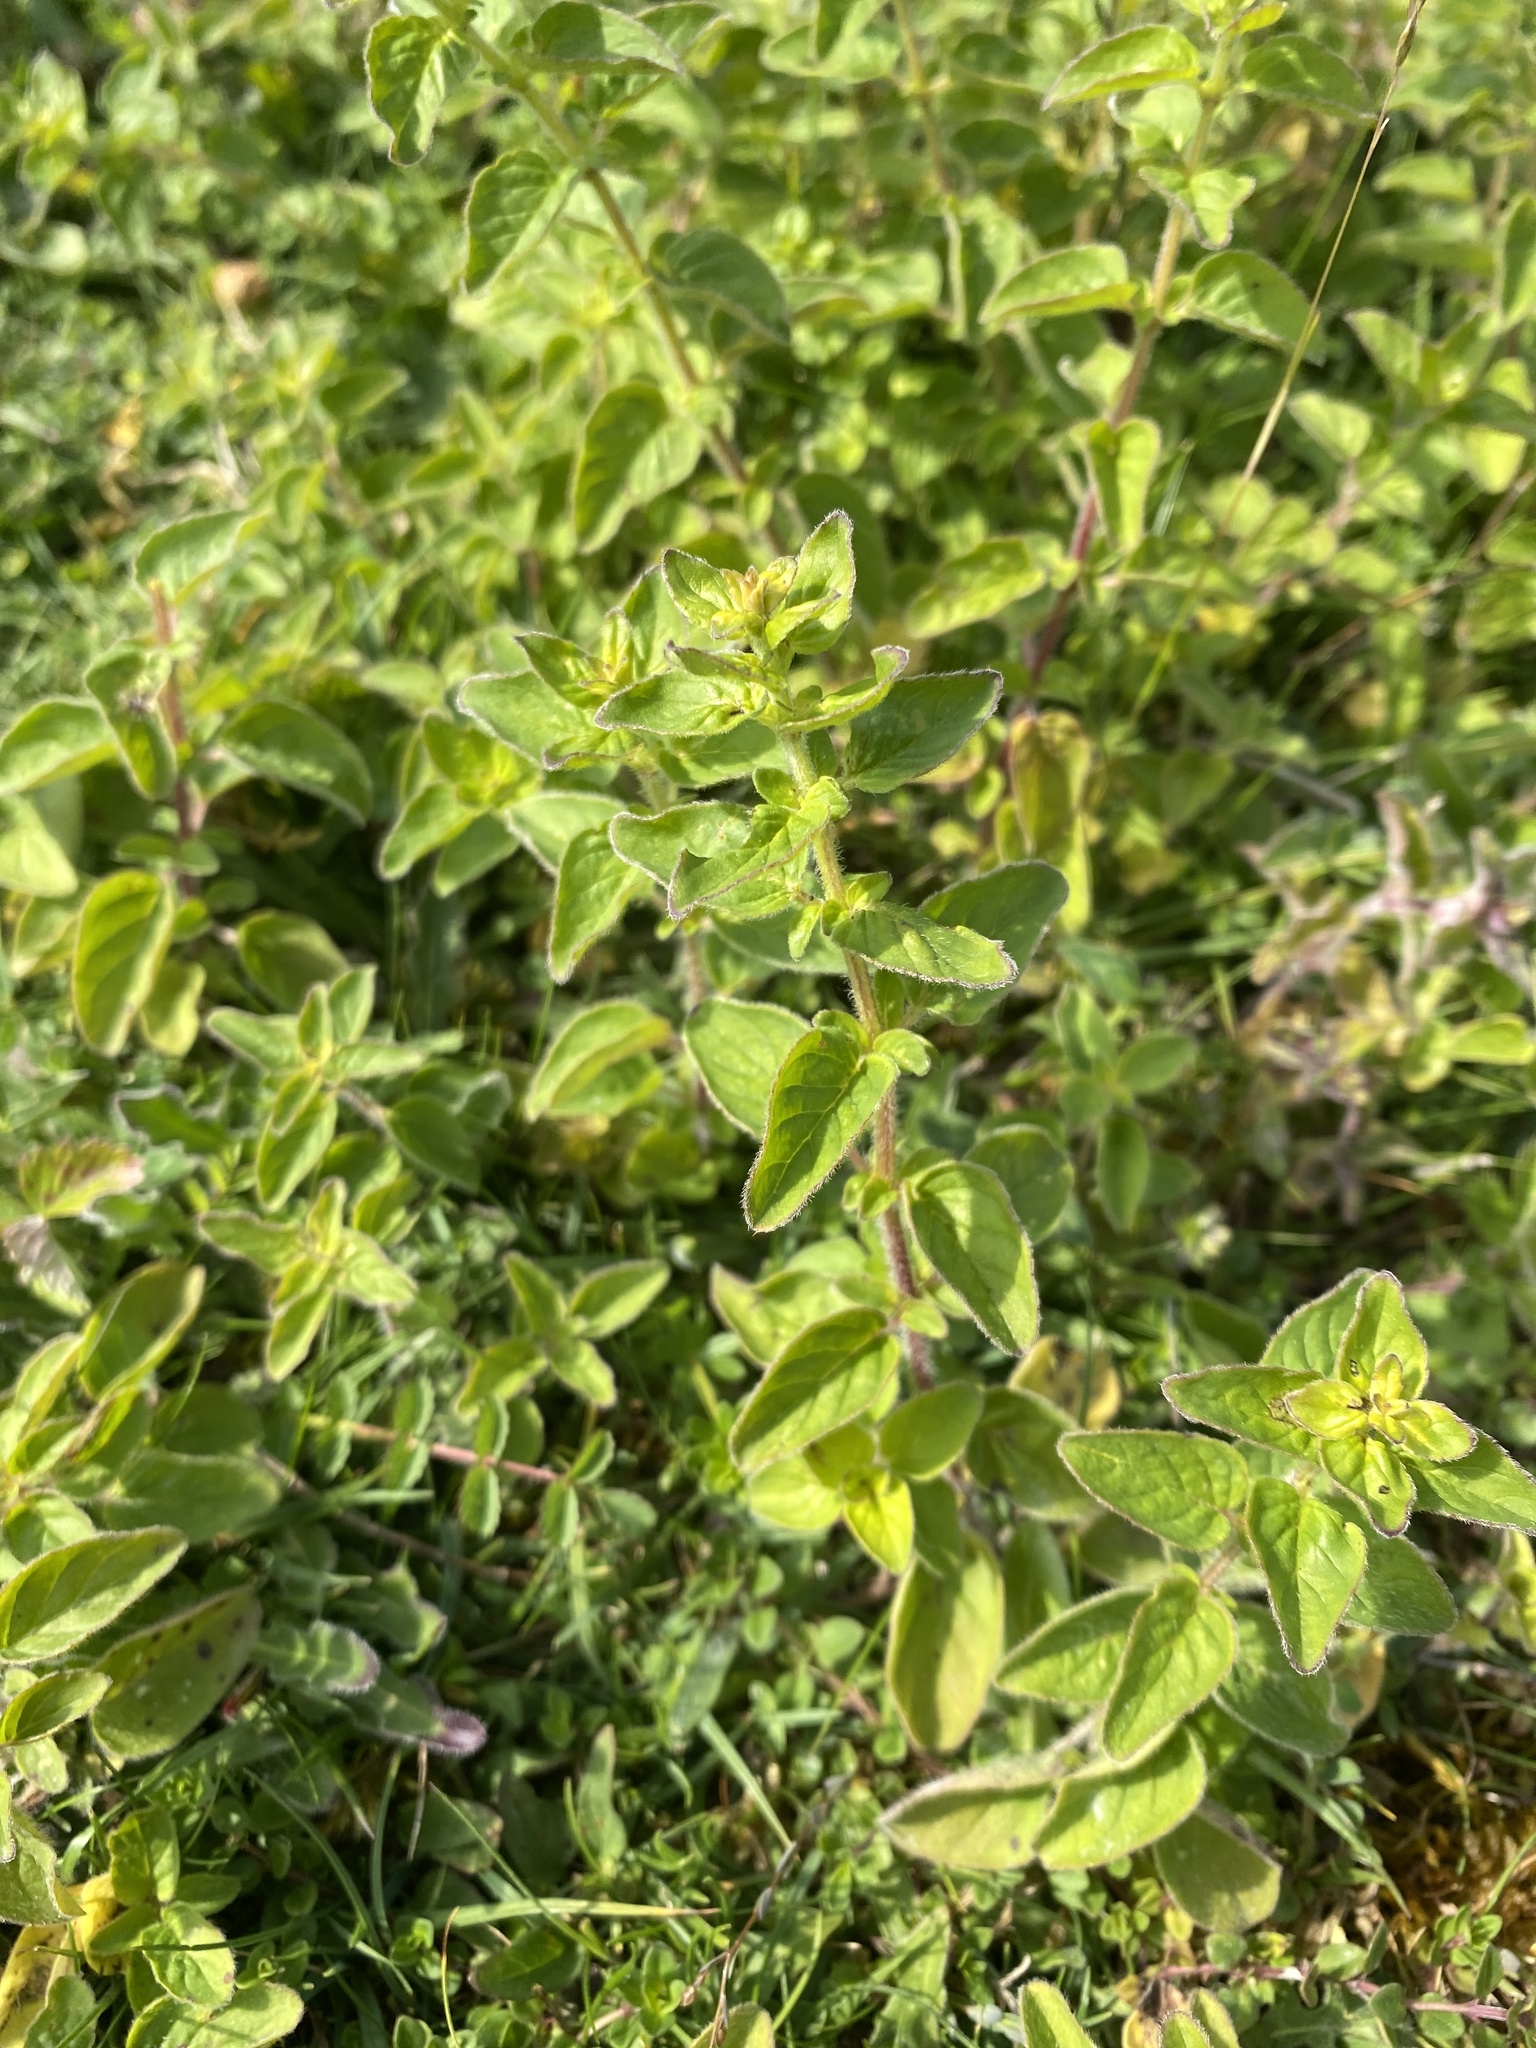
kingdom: Plantae
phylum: Tracheophyta
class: Magnoliopsida
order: Lamiales
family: Lamiaceae
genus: Origanum
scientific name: Origanum vulgare
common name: Wild marjoram
